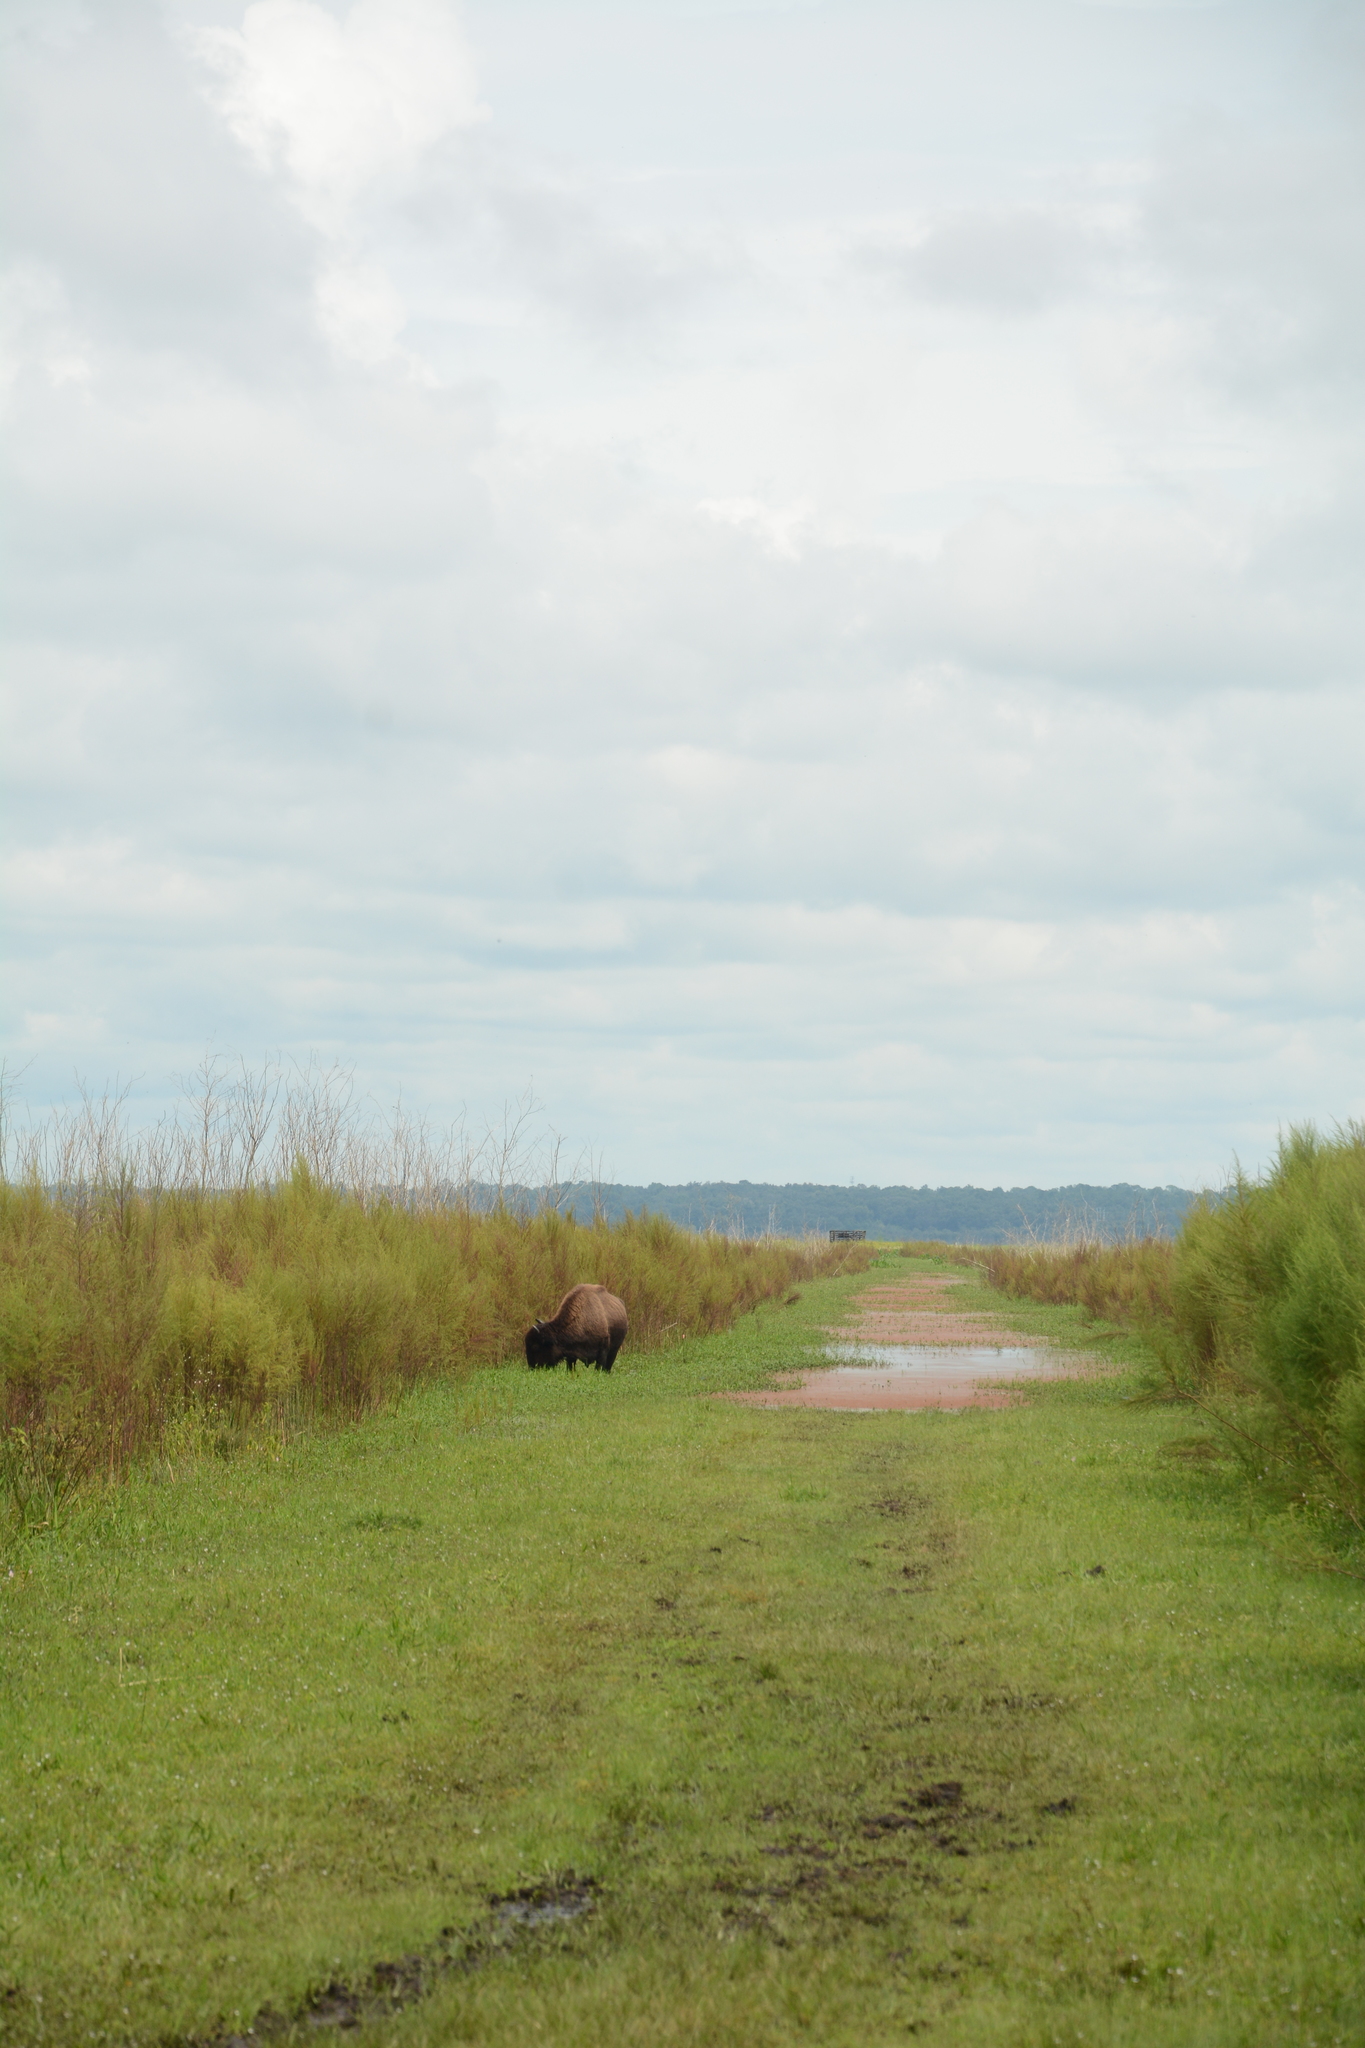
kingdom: Animalia
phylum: Chordata
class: Mammalia
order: Artiodactyla
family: Bovidae
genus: Bison
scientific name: Bison bison
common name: American bison
